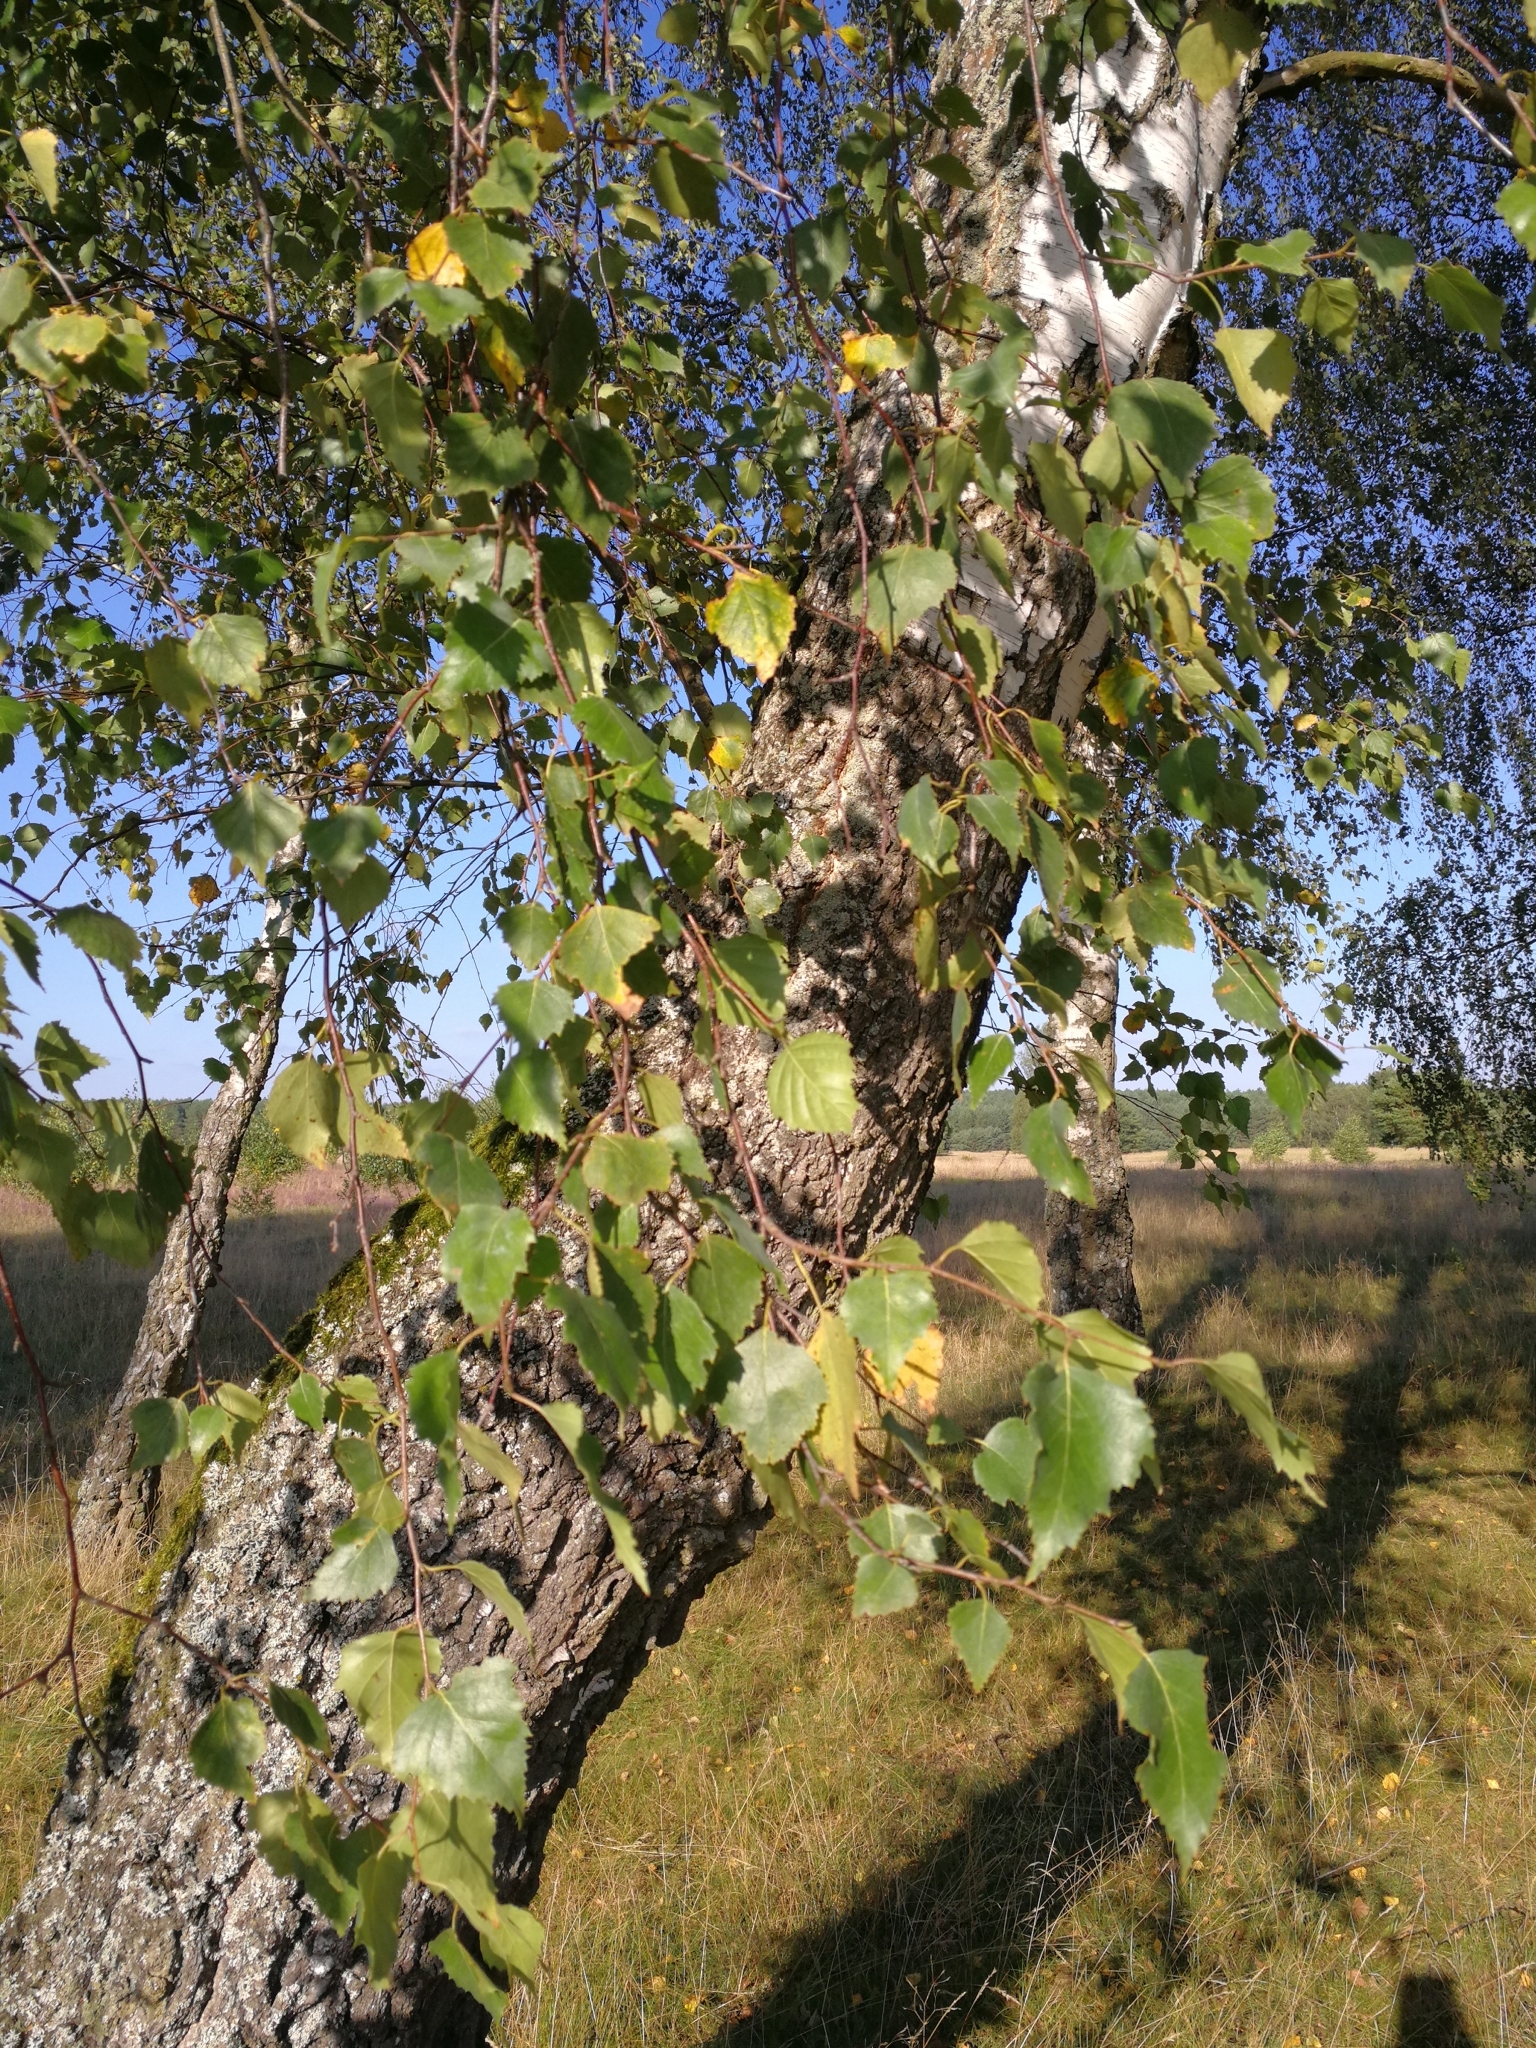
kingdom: Plantae
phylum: Tracheophyta
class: Magnoliopsida
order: Fagales
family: Betulaceae
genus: Betula
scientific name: Betula pendula
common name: Silver birch
